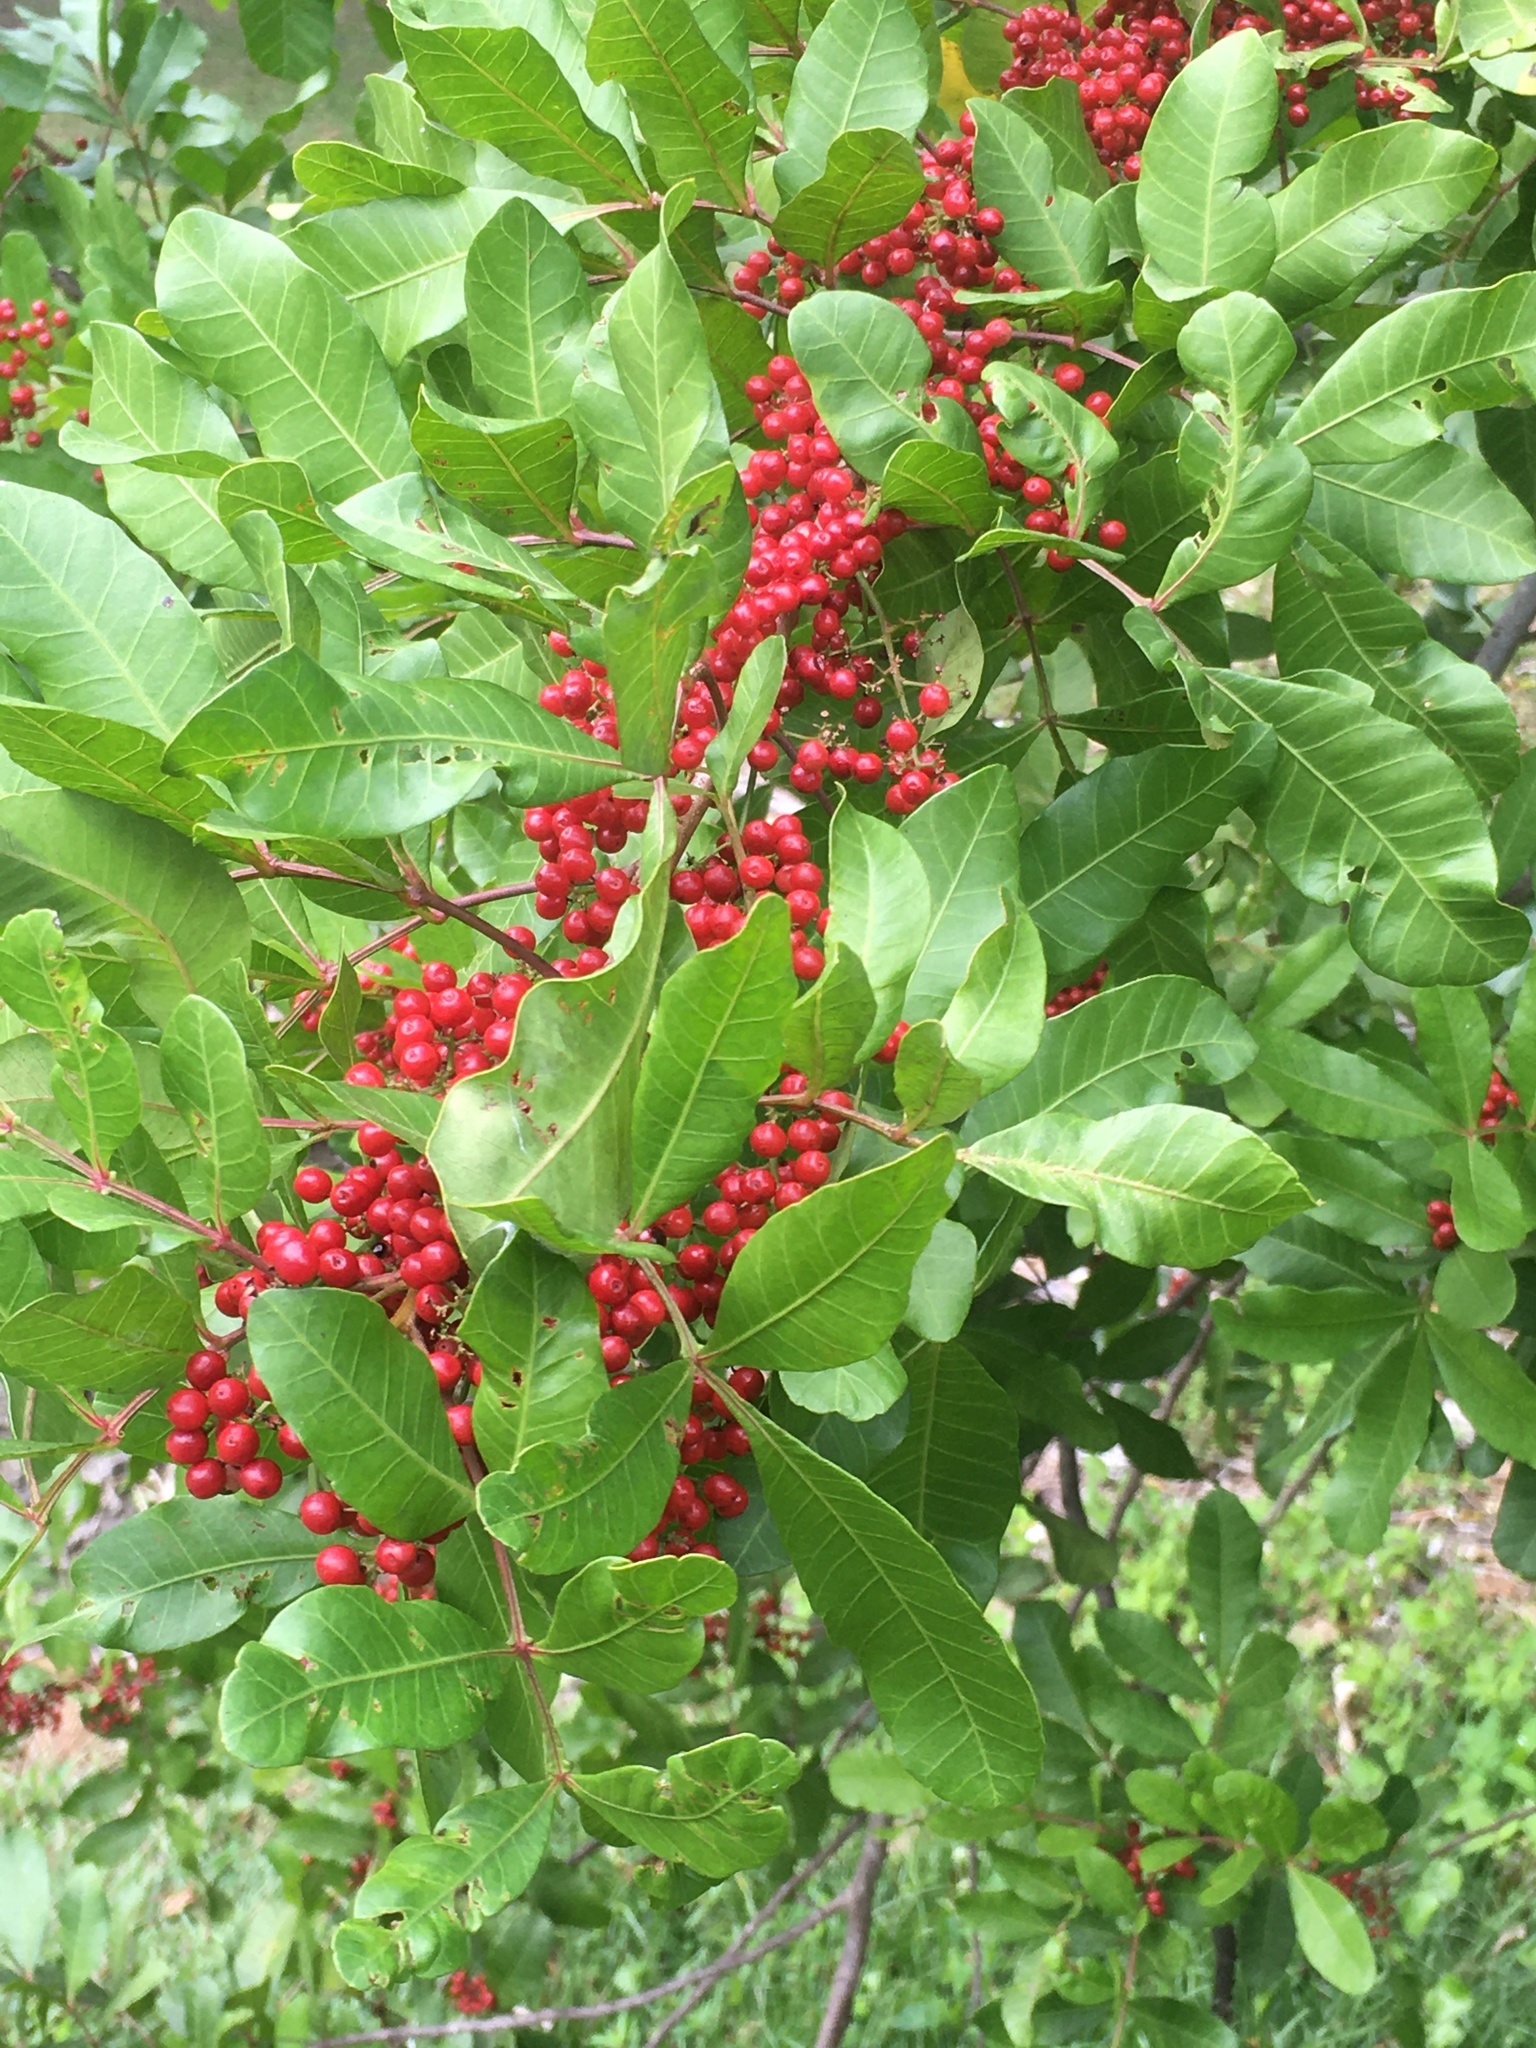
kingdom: Plantae
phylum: Tracheophyta
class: Magnoliopsida
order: Sapindales
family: Anacardiaceae
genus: Schinus
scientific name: Schinus terebinthifolia
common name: Brazilian peppertree
